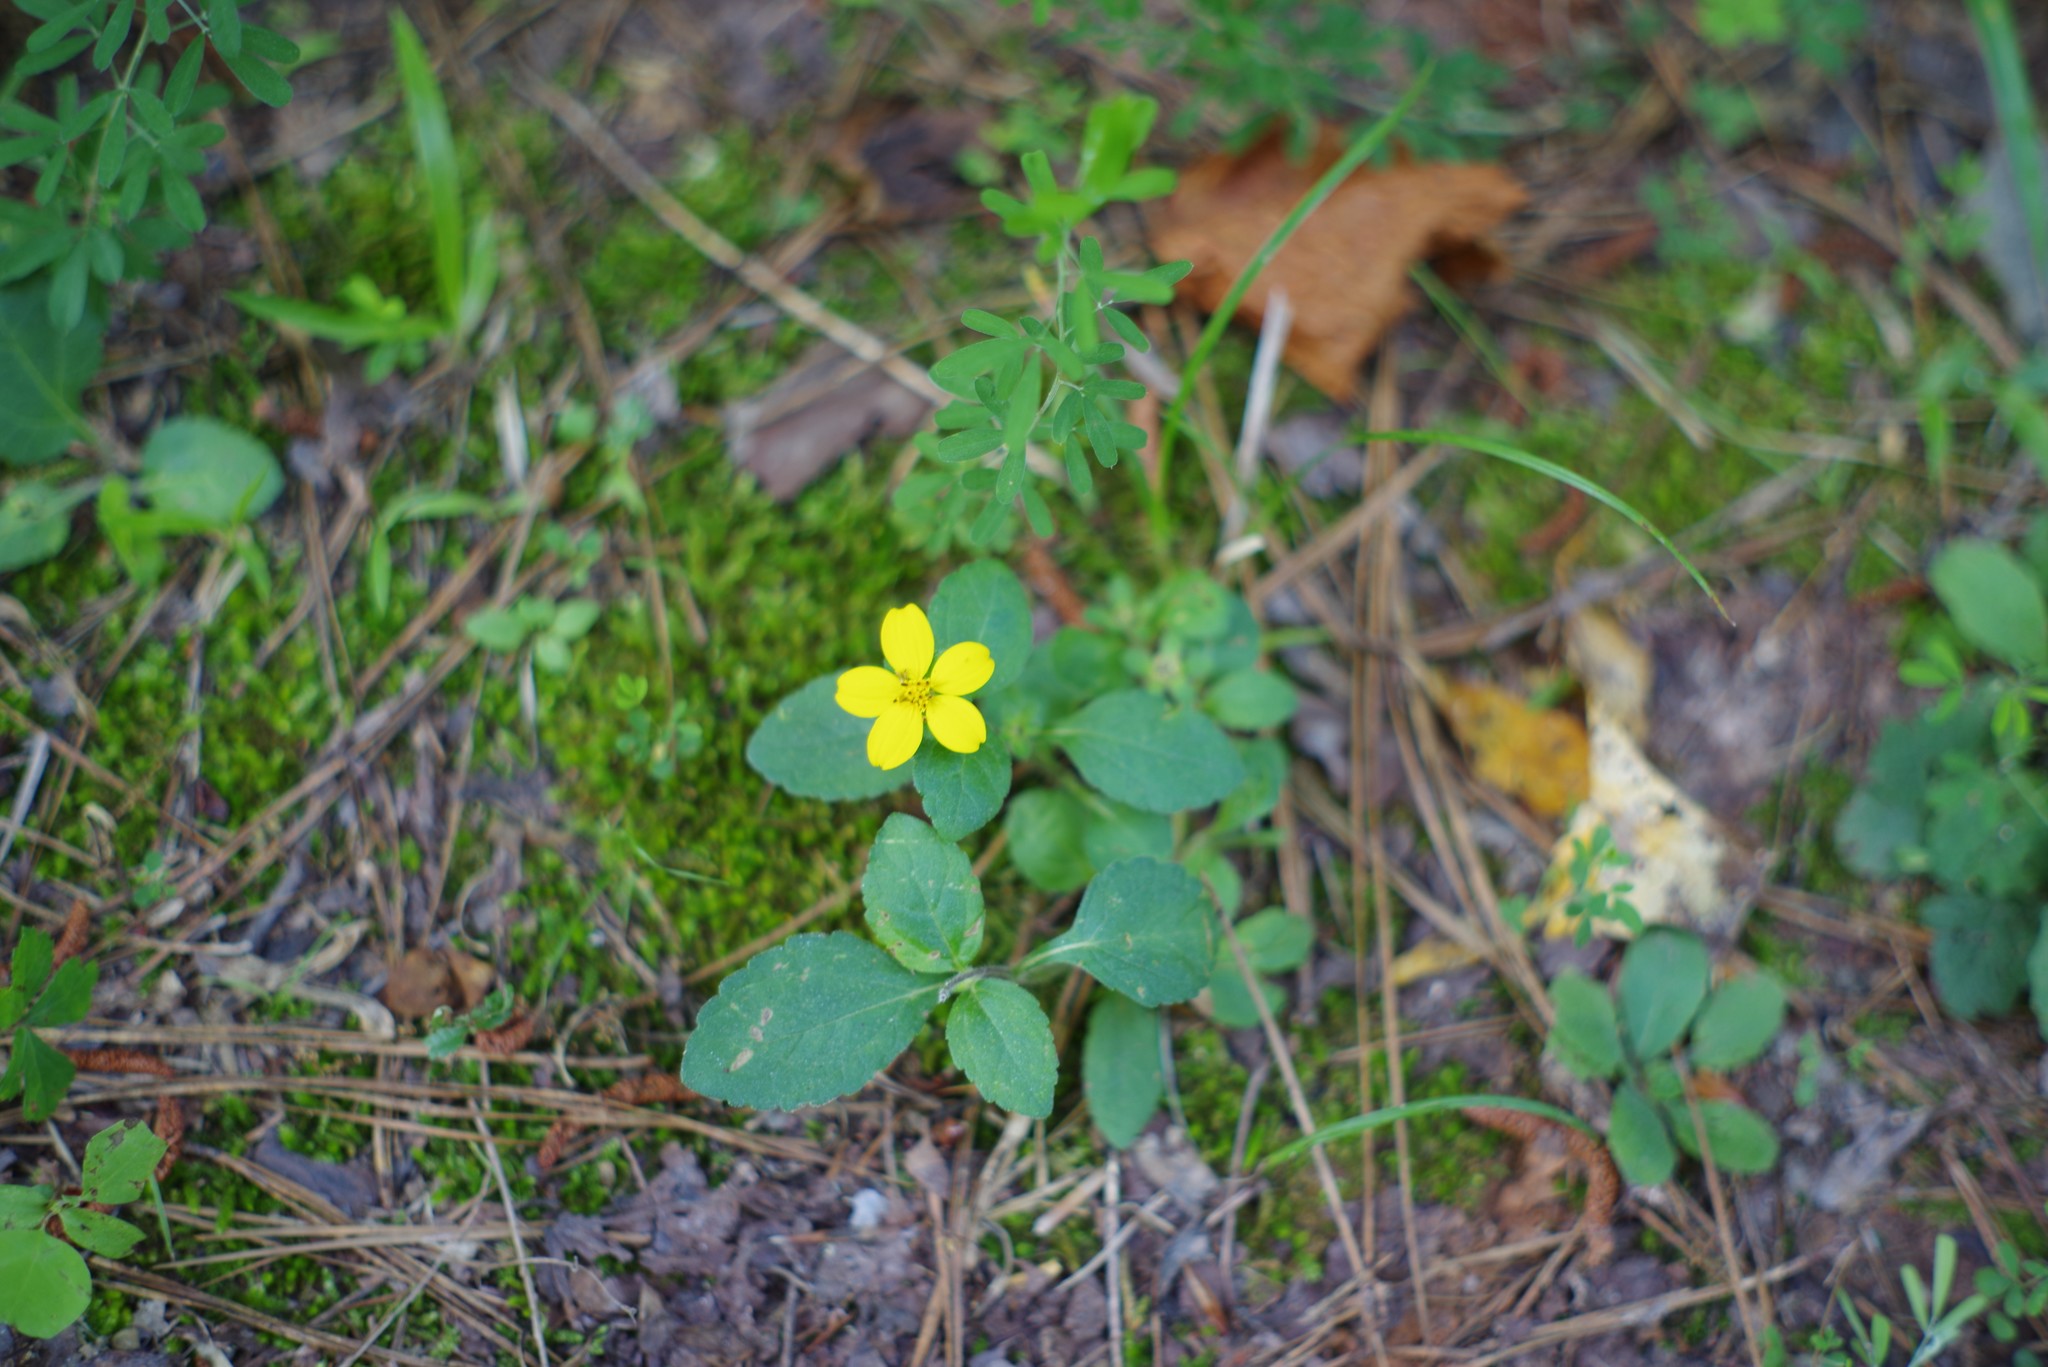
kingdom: Plantae
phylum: Tracheophyta
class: Magnoliopsida
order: Asterales
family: Asteraceae
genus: Chrysogonum
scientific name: Chrysogonum virginianum
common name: Golden-knee
